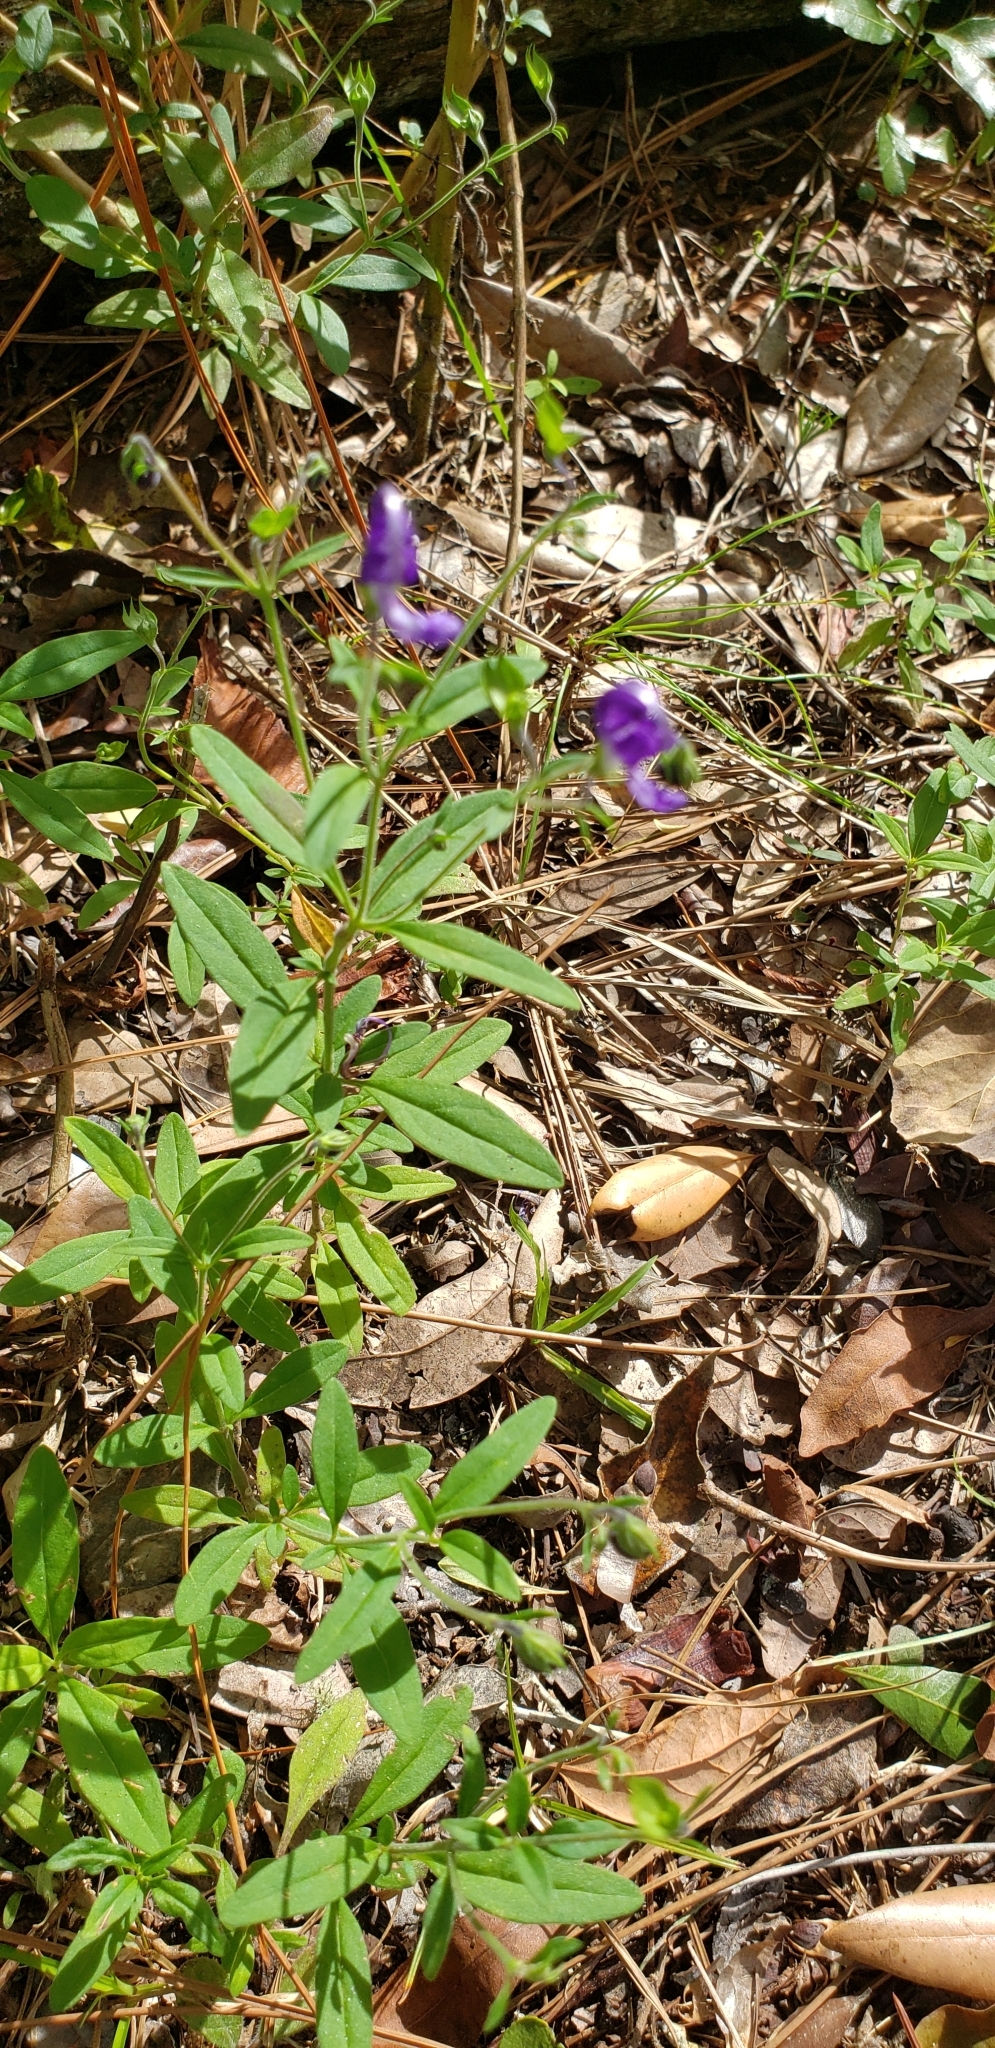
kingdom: Plantae
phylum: Tracheophyta
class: Magnoliopsida
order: Lamiales
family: Lamiaceae
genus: Trichostema
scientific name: Trichostema fruticosum
